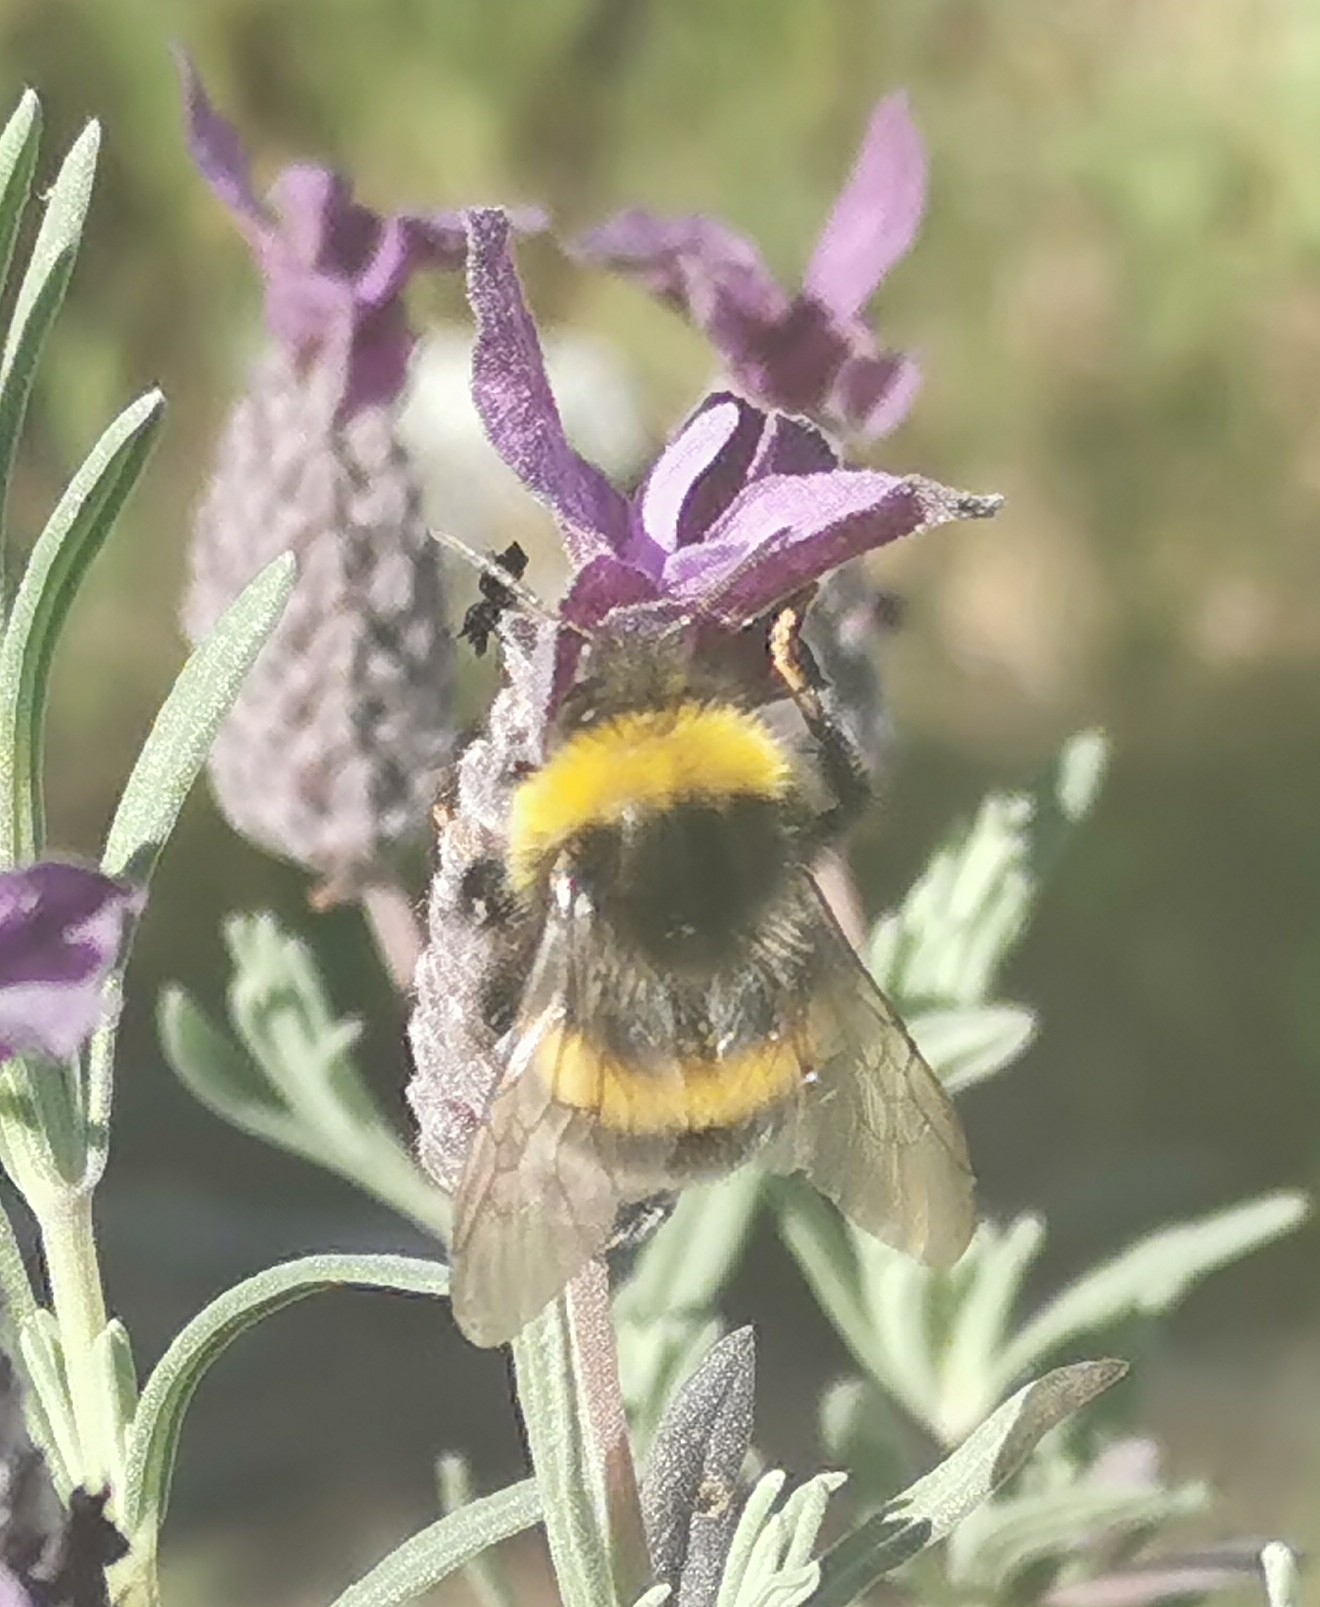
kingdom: Animalia
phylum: Arthropoda
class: Insecta
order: Hymenoptera
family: Apidae
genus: Bombus
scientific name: Bombus terrestris
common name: Buff-tailed bumblebee
